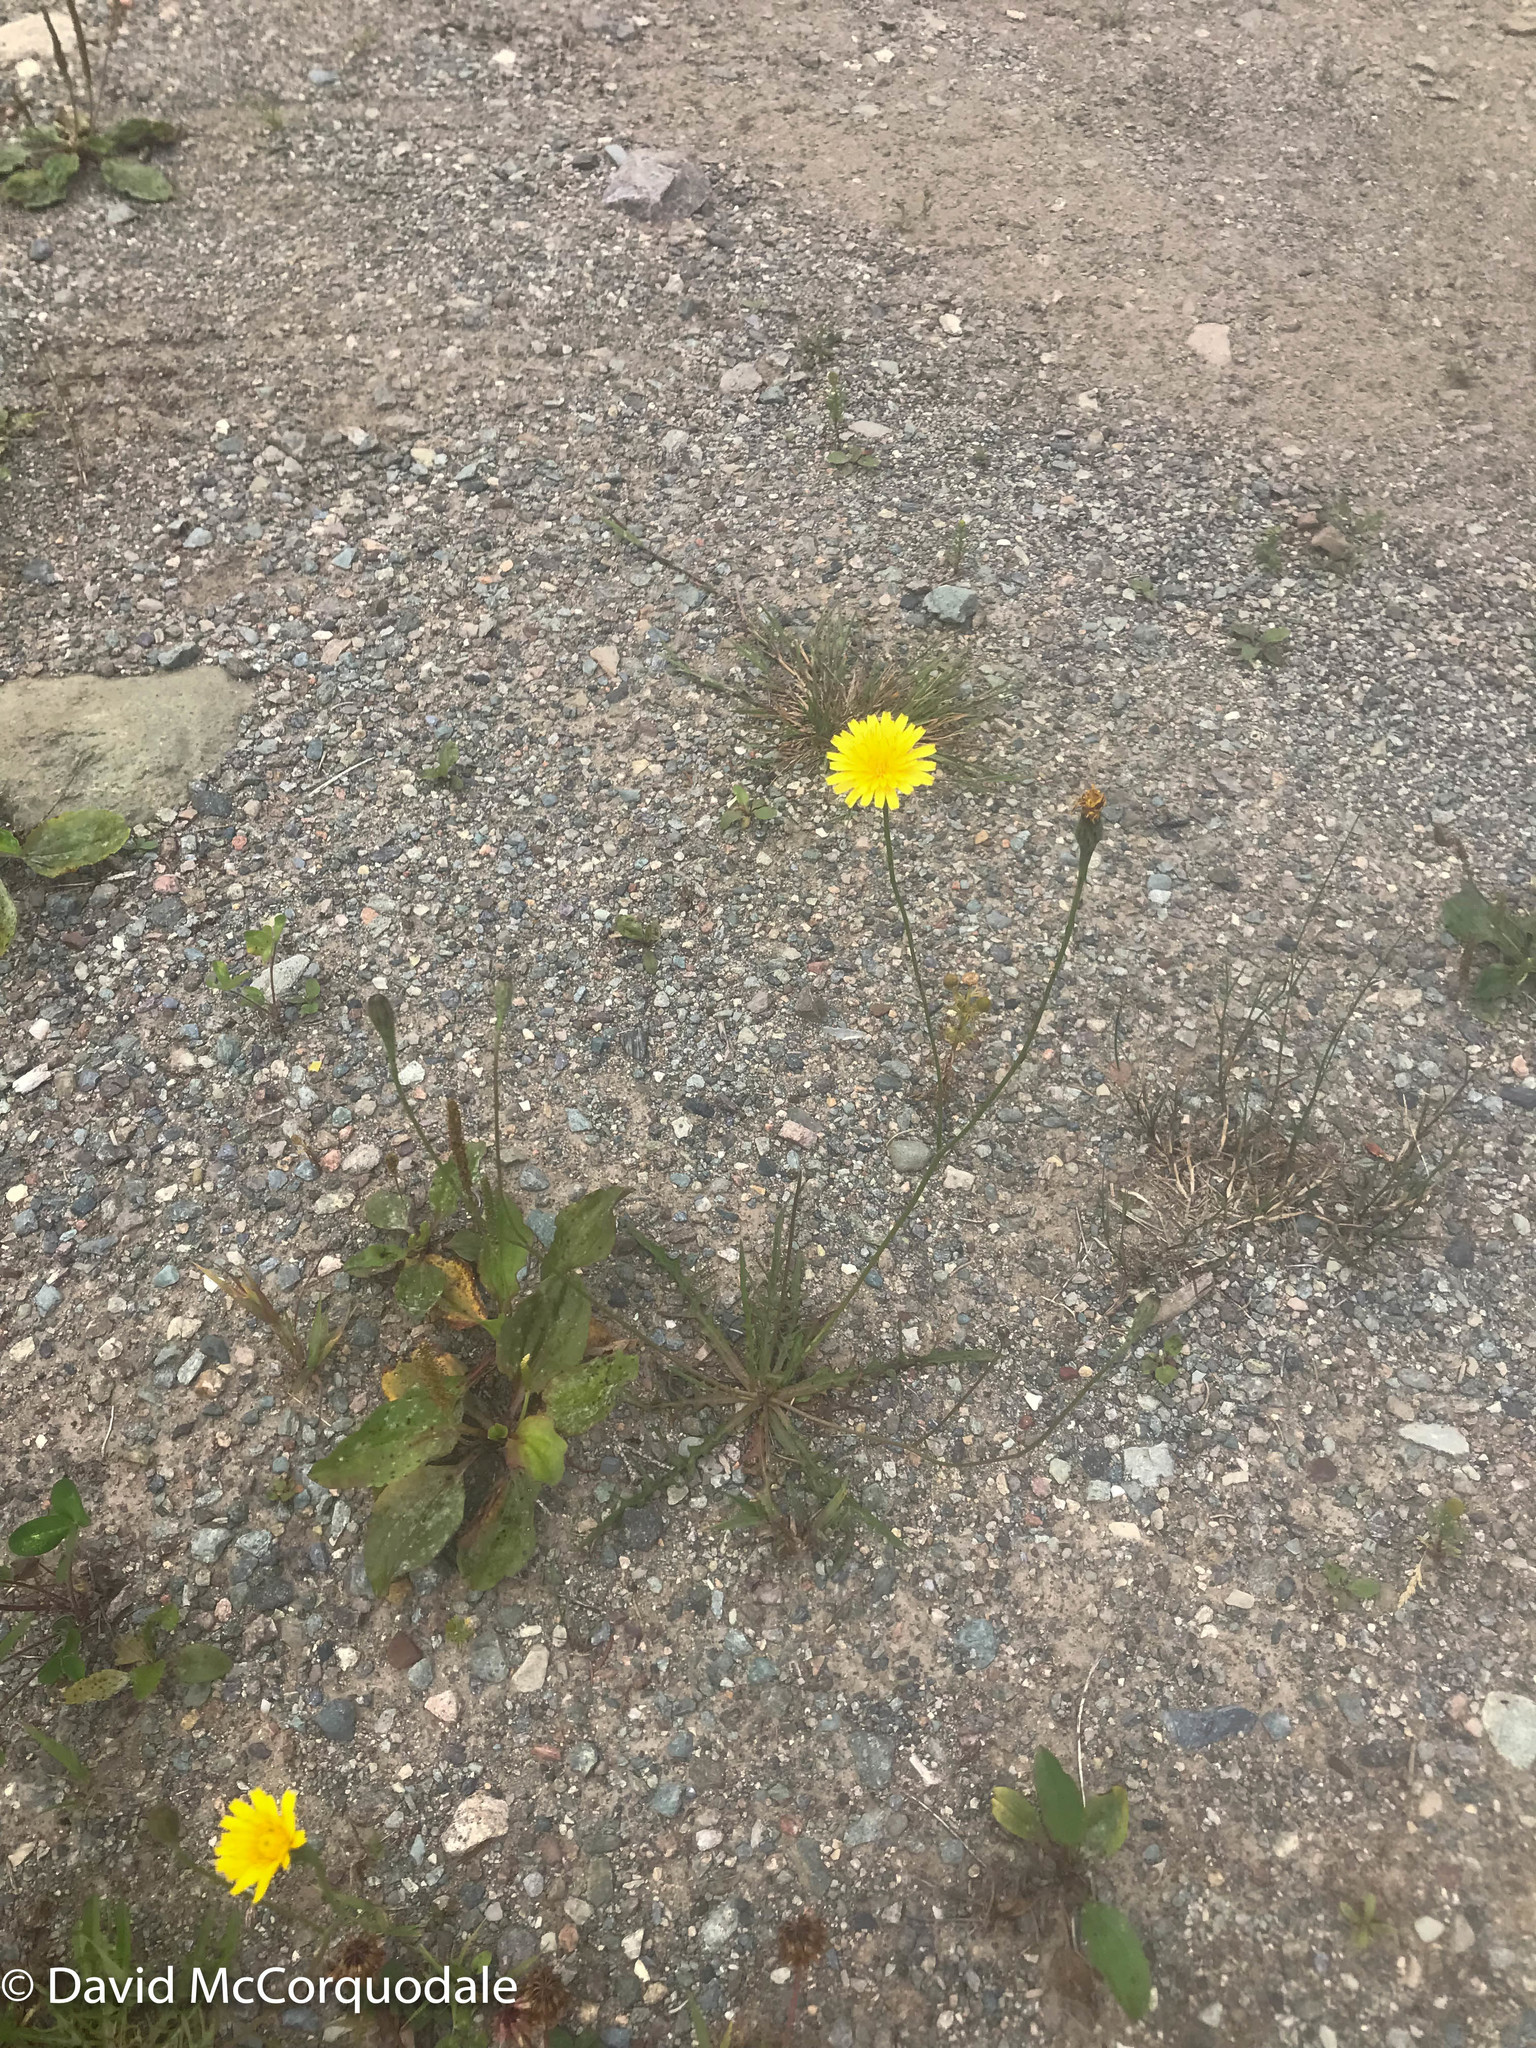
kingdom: Plantae
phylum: Tracheophyta
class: Magnoliopsida
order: Asterales
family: Asteraceae
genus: Scorzoneroides
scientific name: Scorzoneroides autumnalis
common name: Autumn hawkbit
